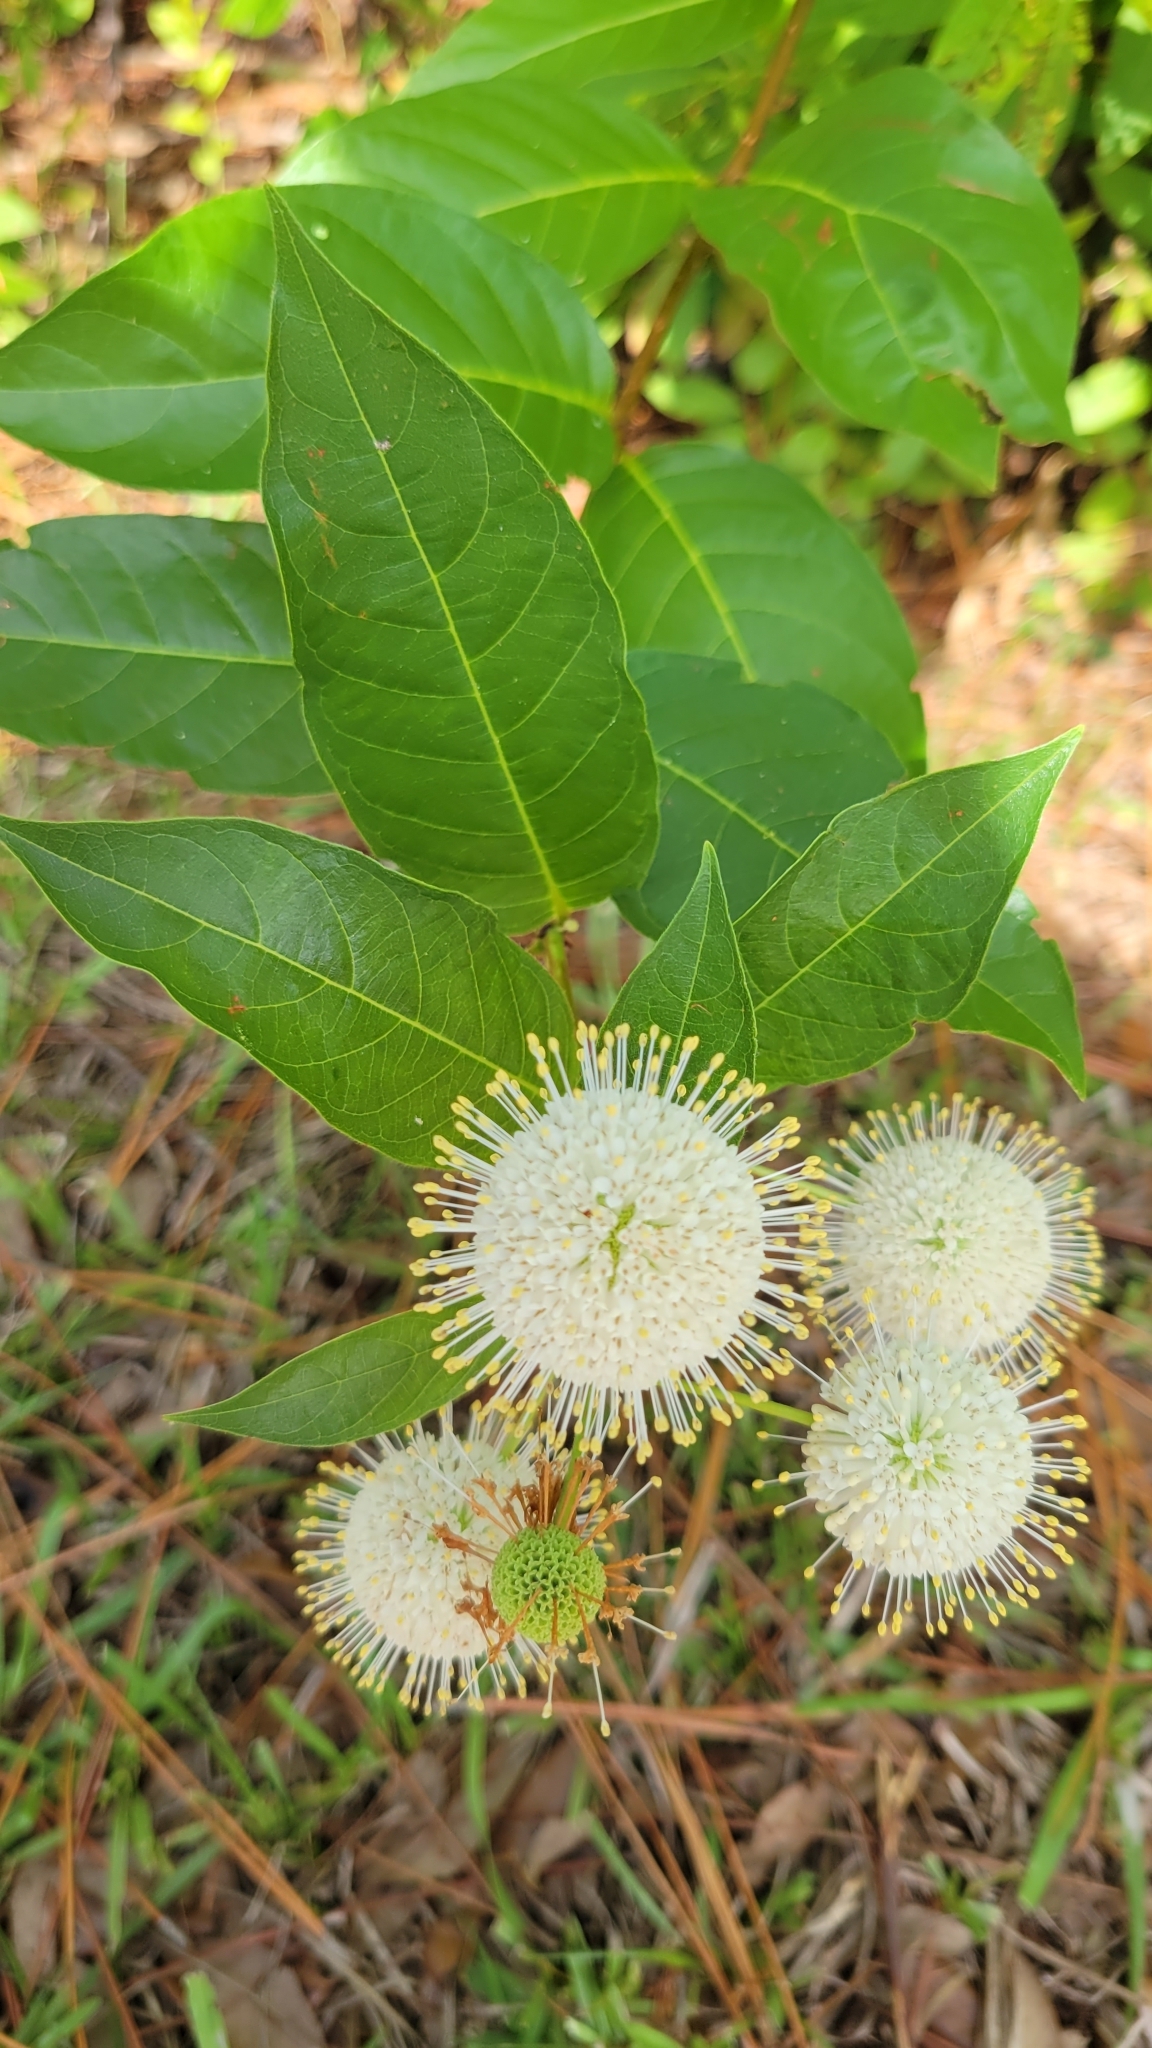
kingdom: Plantae
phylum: Tracheophyta
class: Magnoliopsida
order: Gentianales
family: Rubiaceae
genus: Cephalanthus
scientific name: Cephalanthus occidentalis
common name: Button-willow
